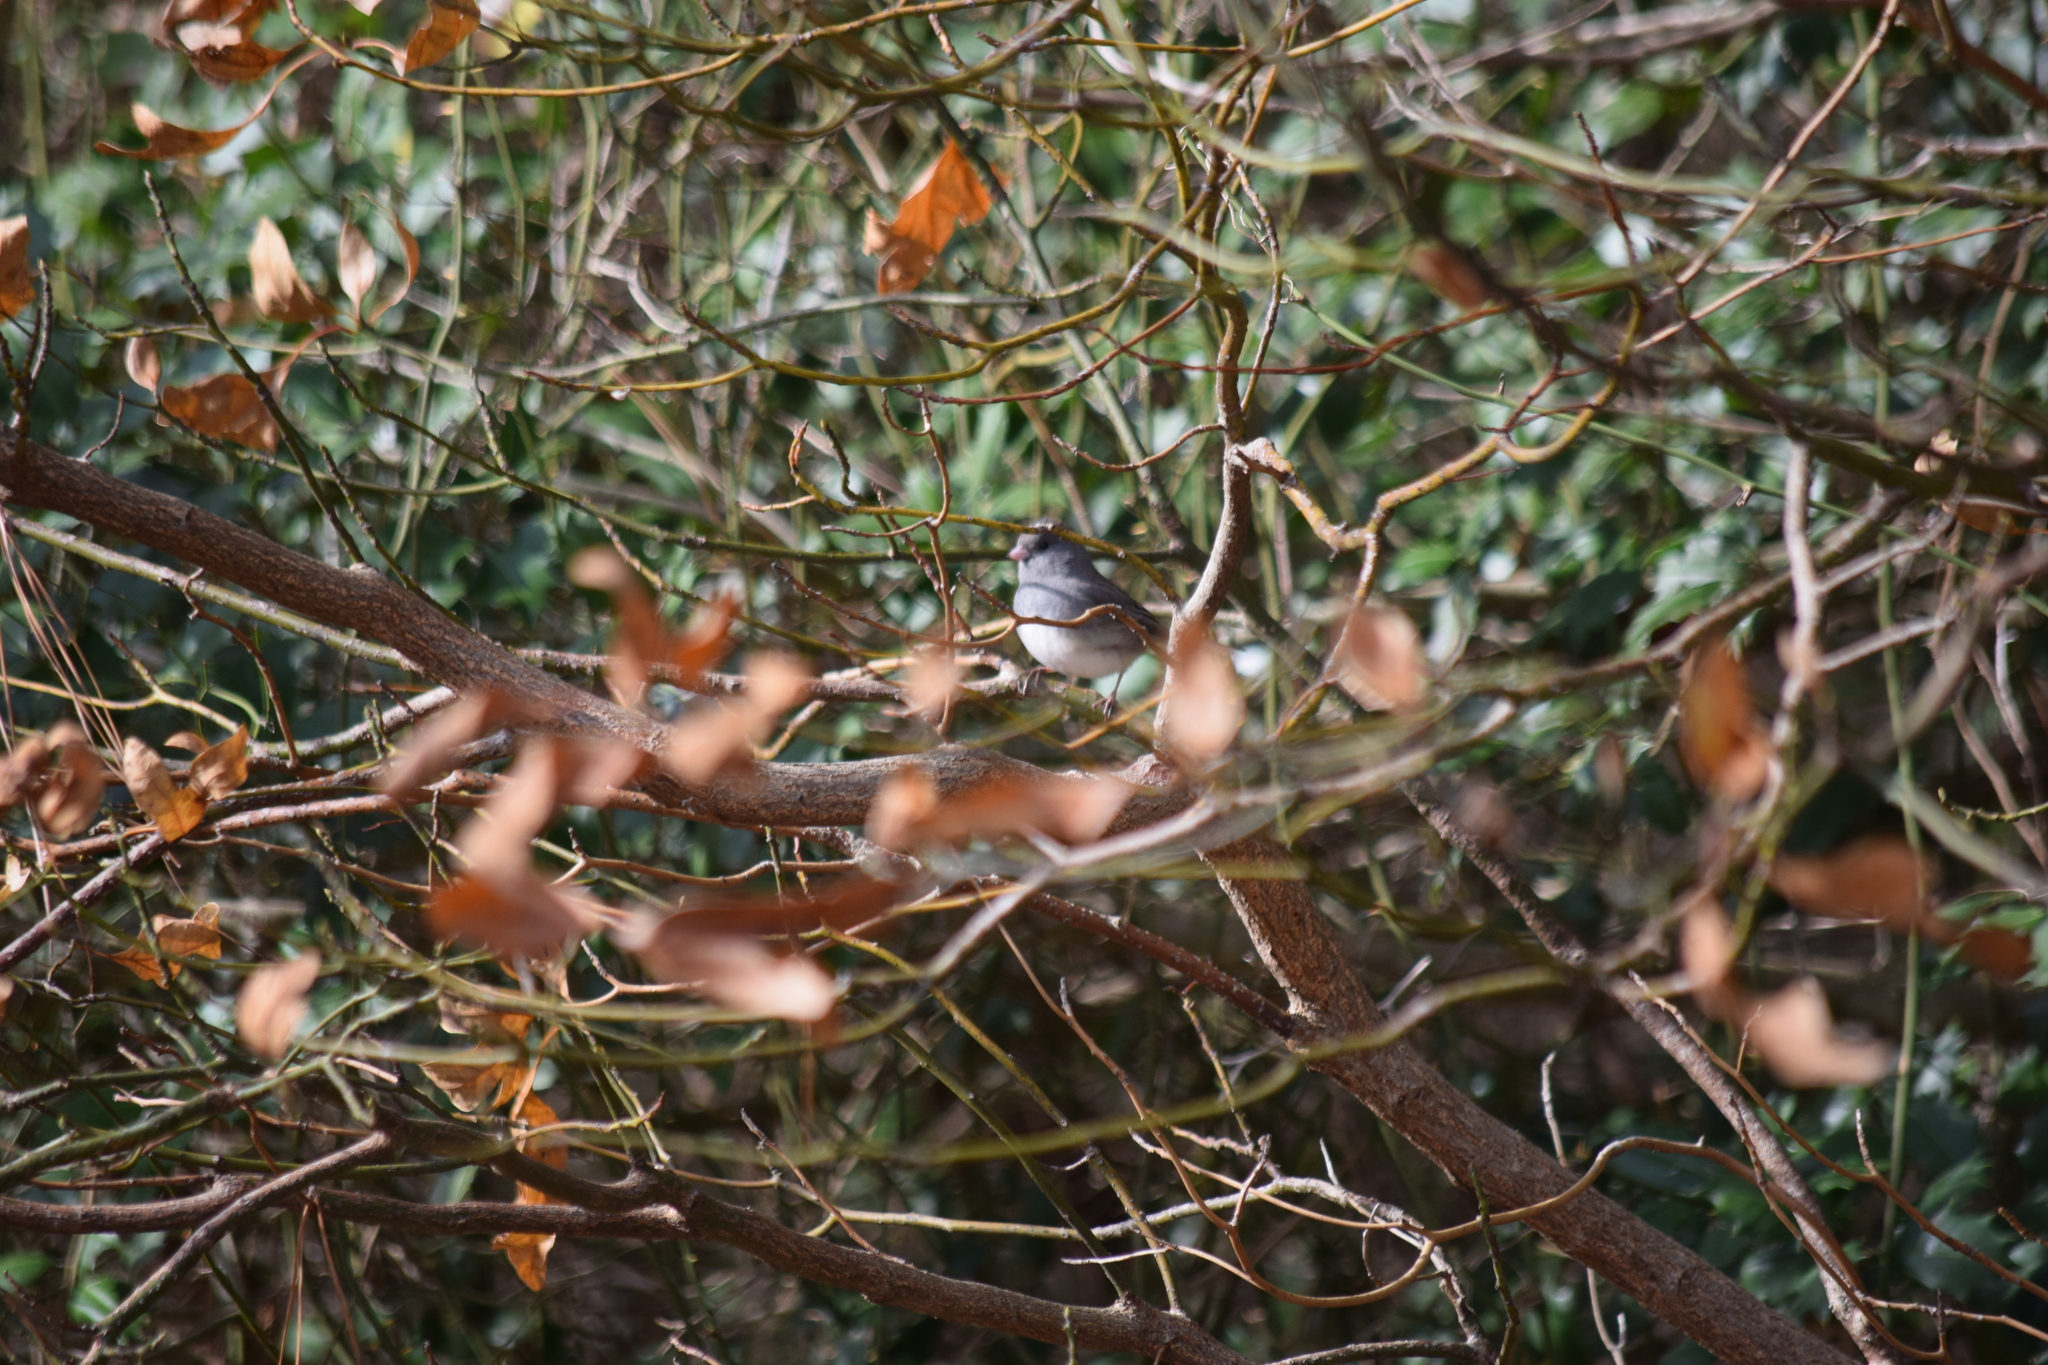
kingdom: Animalia
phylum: Chordata
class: Aves
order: Passeriformes
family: Passerellidae
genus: Junco
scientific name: Junco hyemalis
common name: Dark-eyed junco
